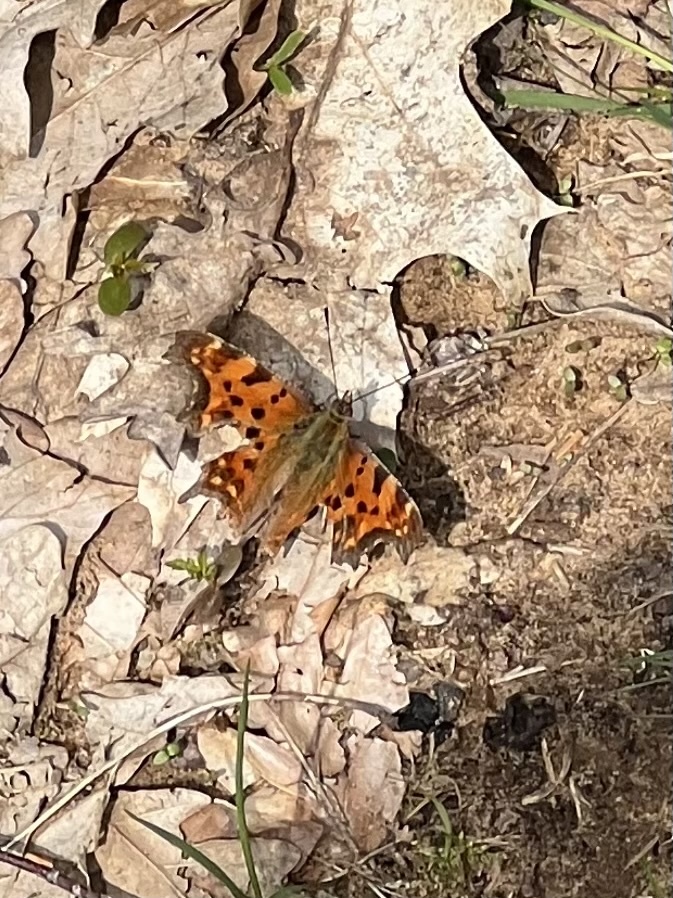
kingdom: Animalia
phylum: Arthropoda
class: Insecta
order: Lepidoptera
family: Nymphalidae
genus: Polygonia
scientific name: Polygonia c-album
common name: Comma
